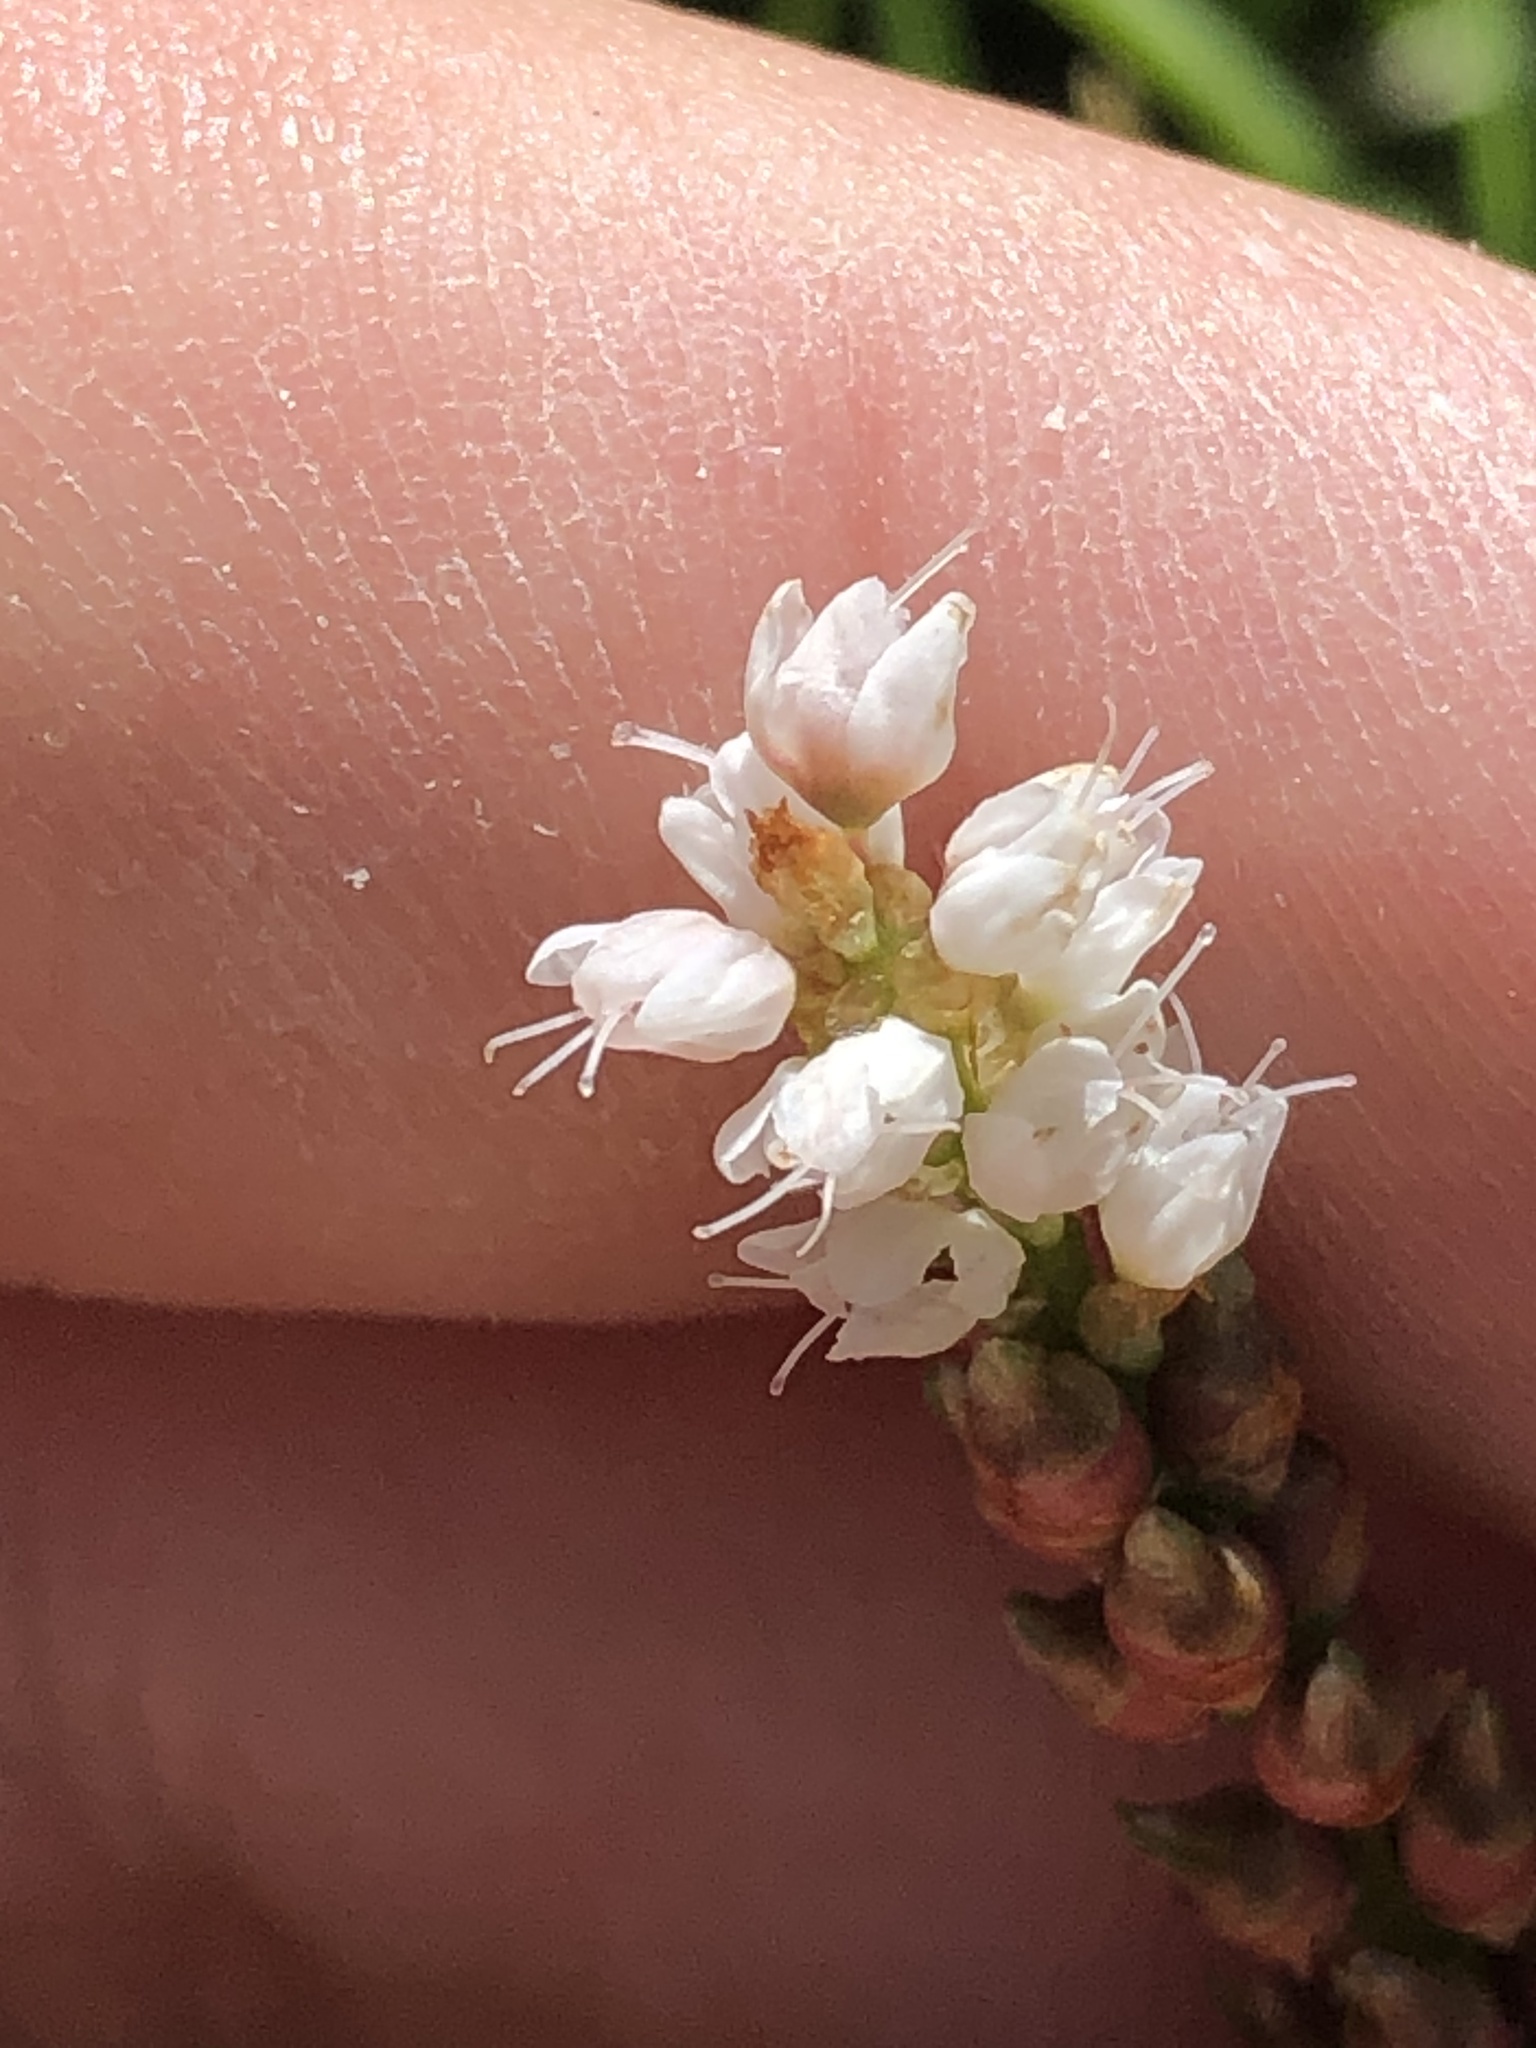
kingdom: Plantae
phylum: Tracheophyta
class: Magnoliopsida
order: Caryophyllales
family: Polygonaceae
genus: Bistorta
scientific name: Bistorta vivipara
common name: Alpine bistort
